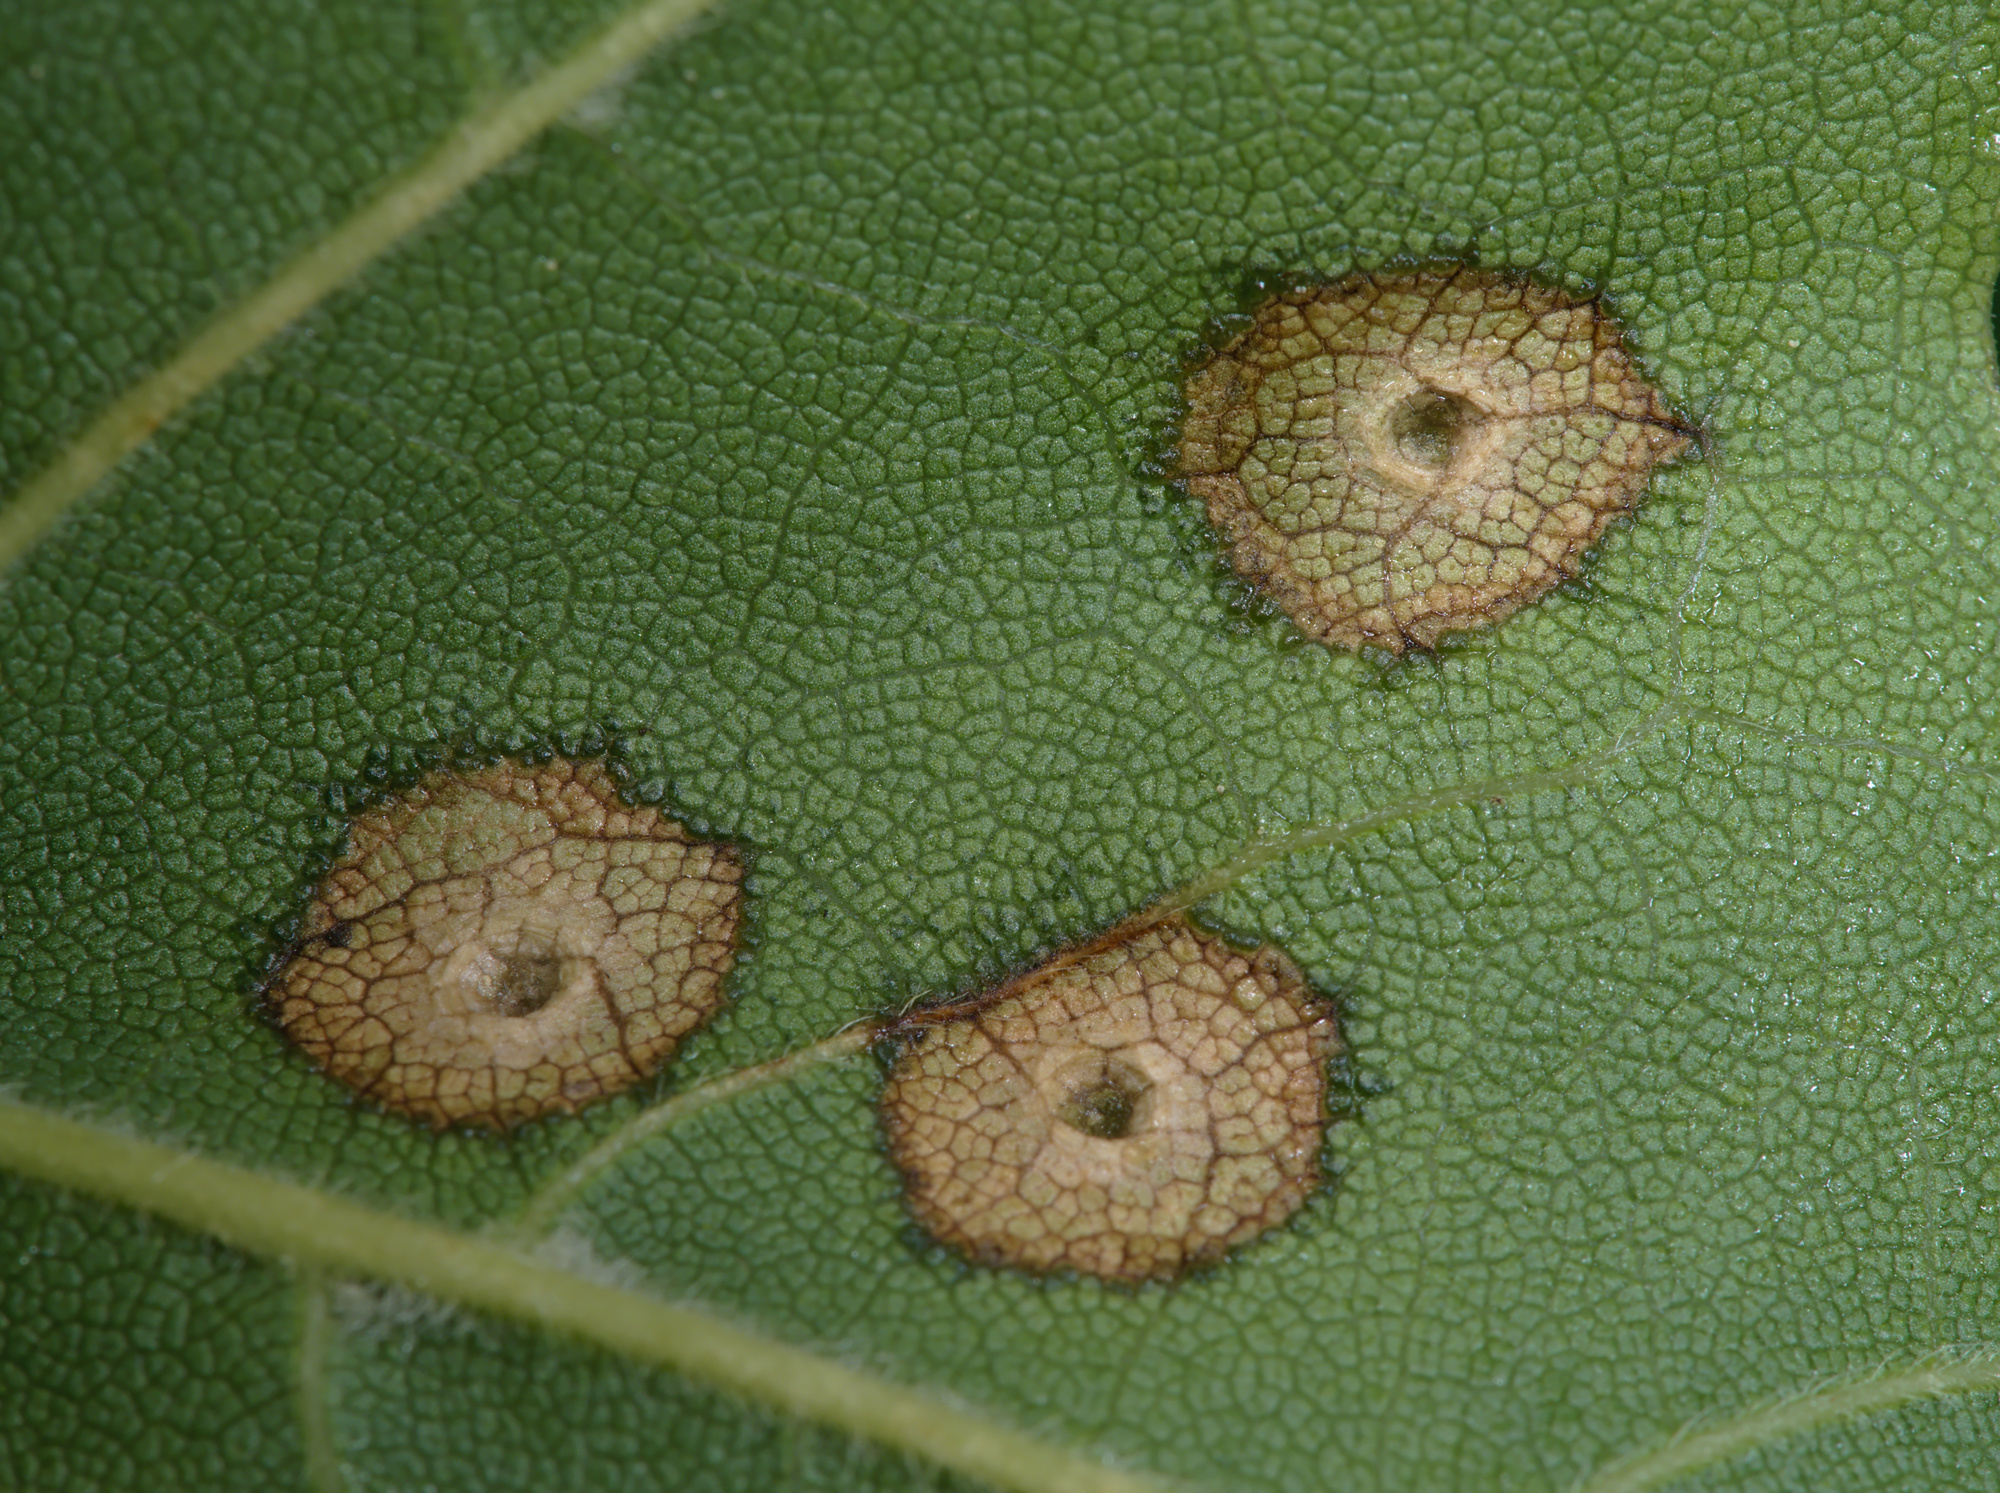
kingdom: Animalia
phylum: Arthropoda
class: Insecta
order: Diptera
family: Cecidomyiidae
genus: Dasineura
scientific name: Dasineura tympani
